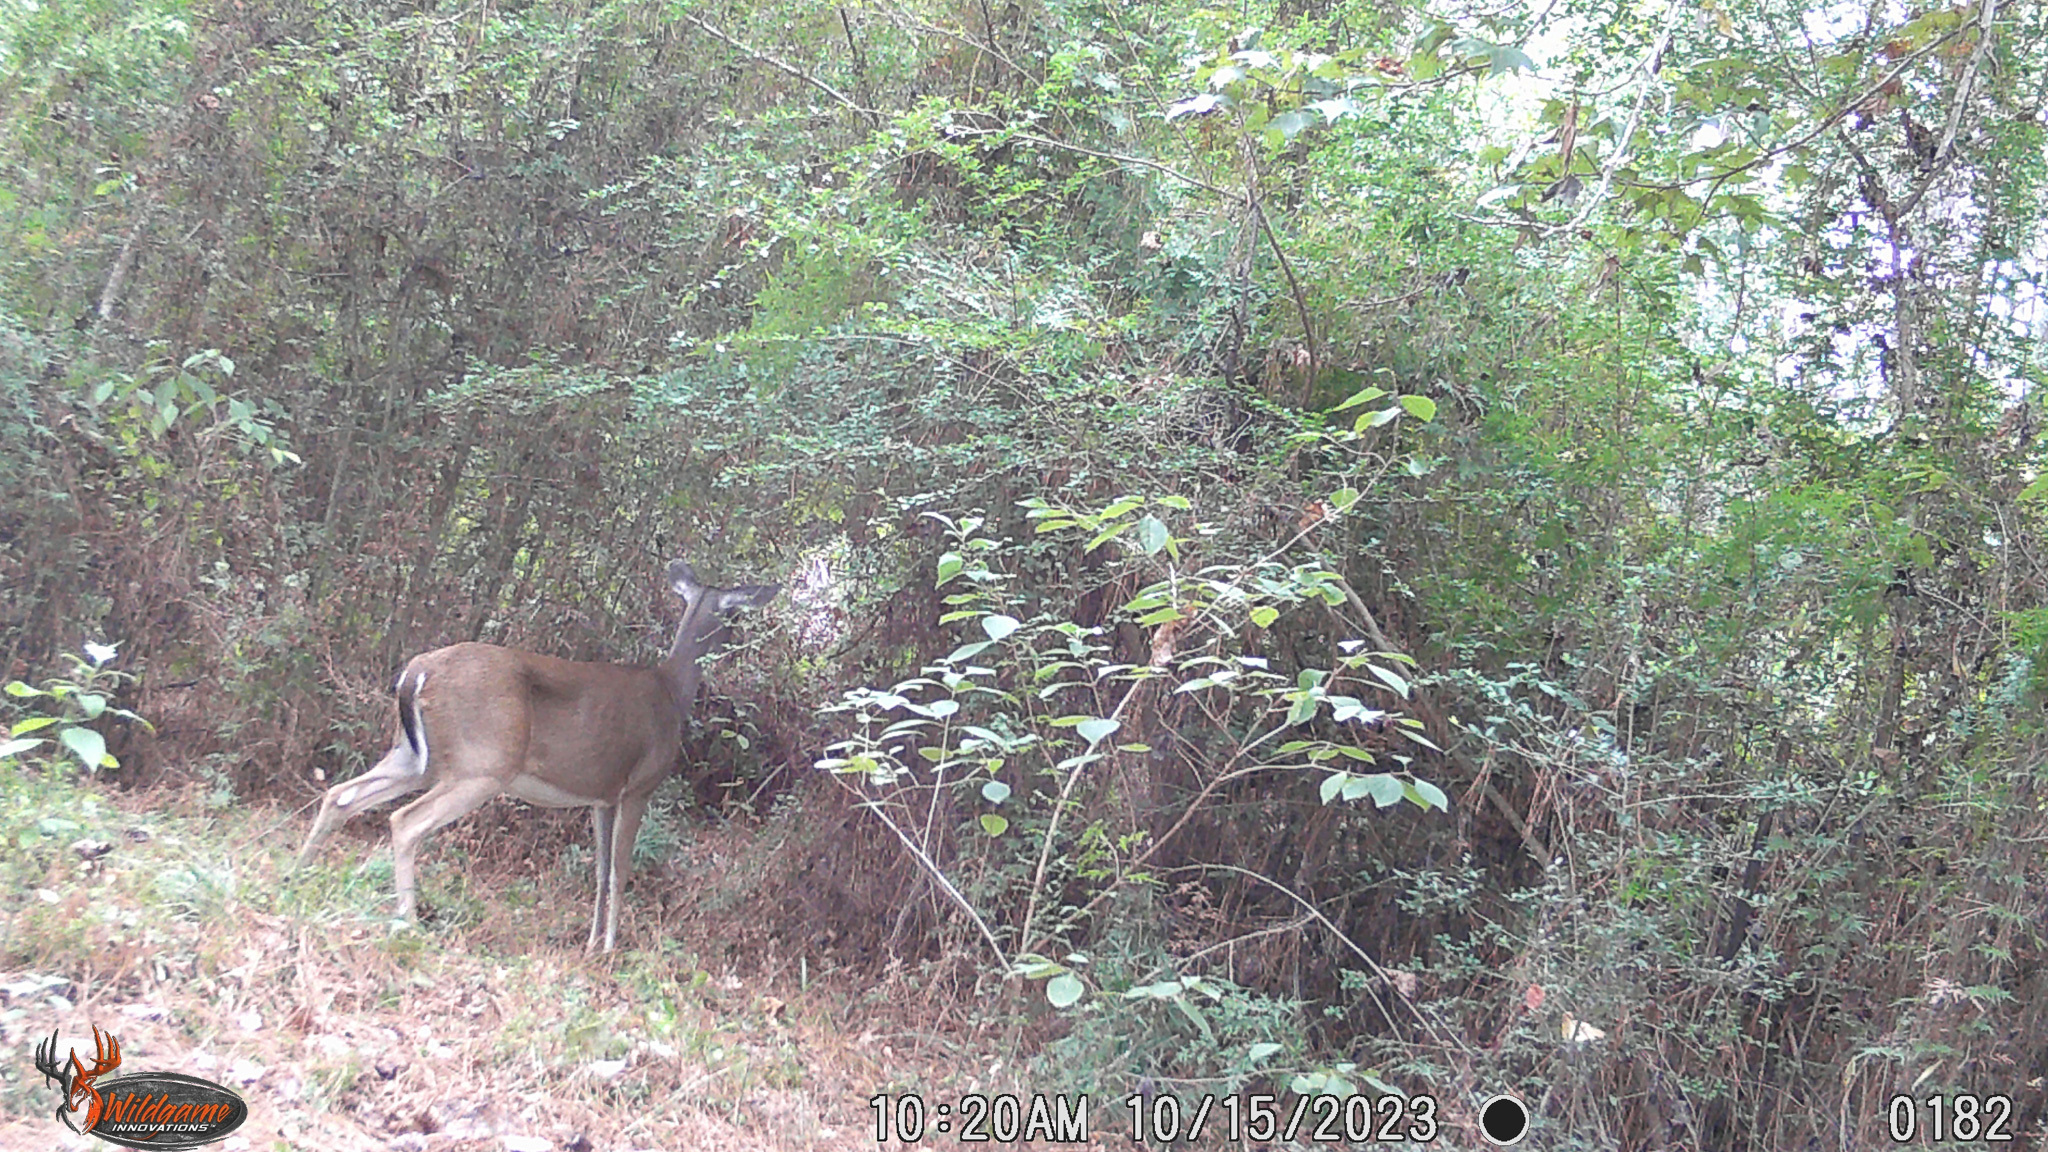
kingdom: Animalia
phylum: Chordata
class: Mammalia
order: Artiodactyla
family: Cervidae
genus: Odocoileus
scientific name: Odocoileus virginianus
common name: White-tailed deer
